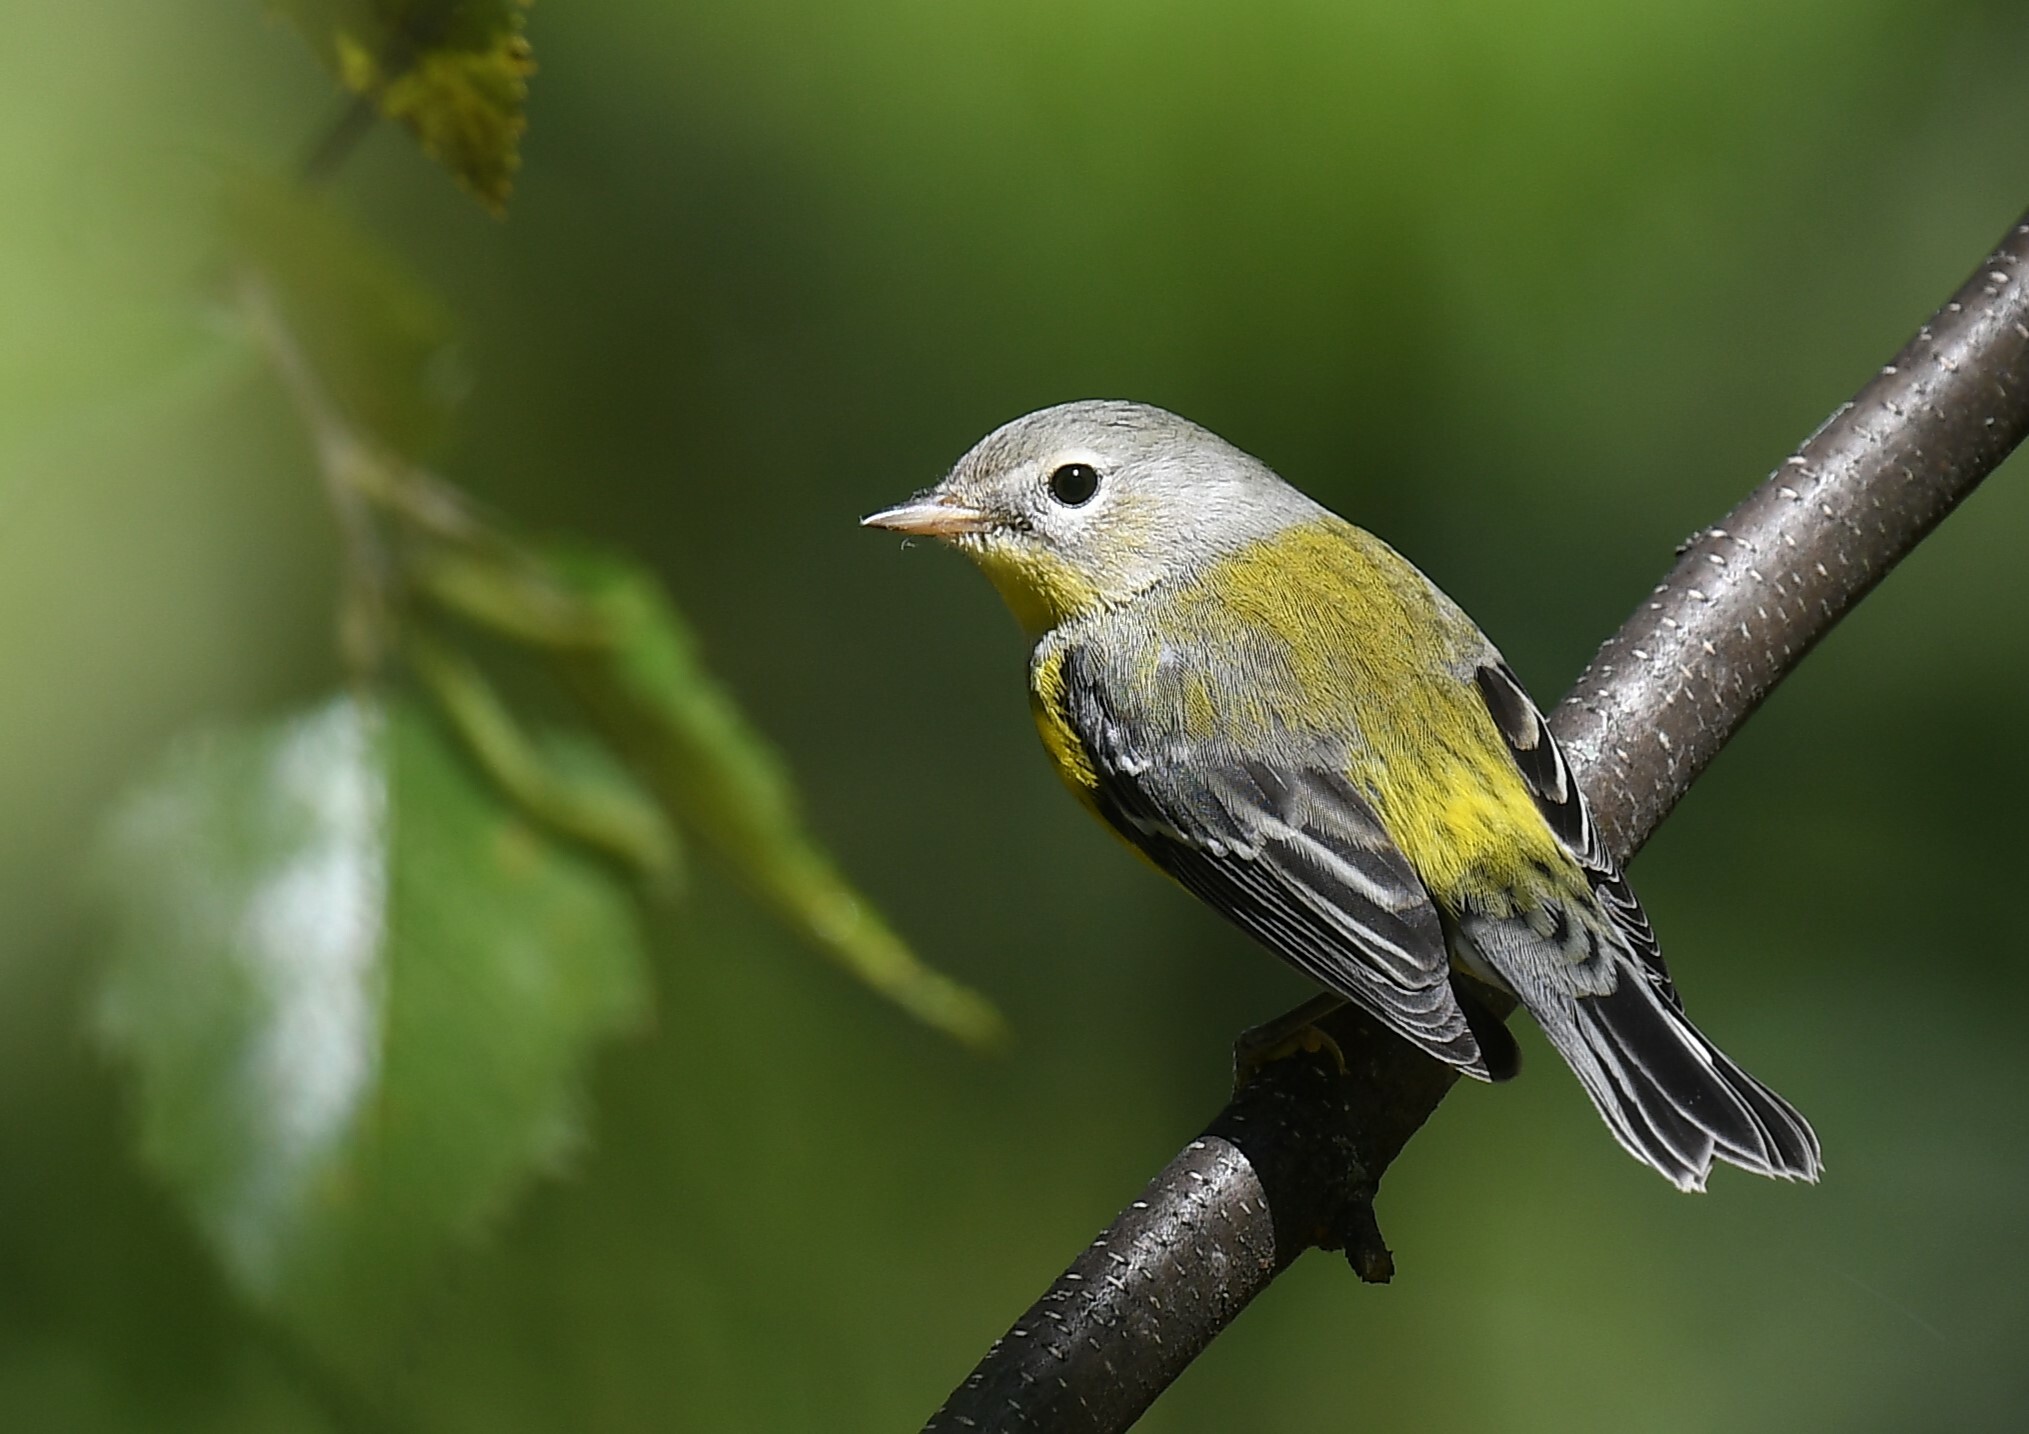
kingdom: Animalia
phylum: Chordata
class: Aves
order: Passeriformes
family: Parulidae
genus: Setophaga
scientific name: Setophaga magnolia
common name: Magnolia warbler
